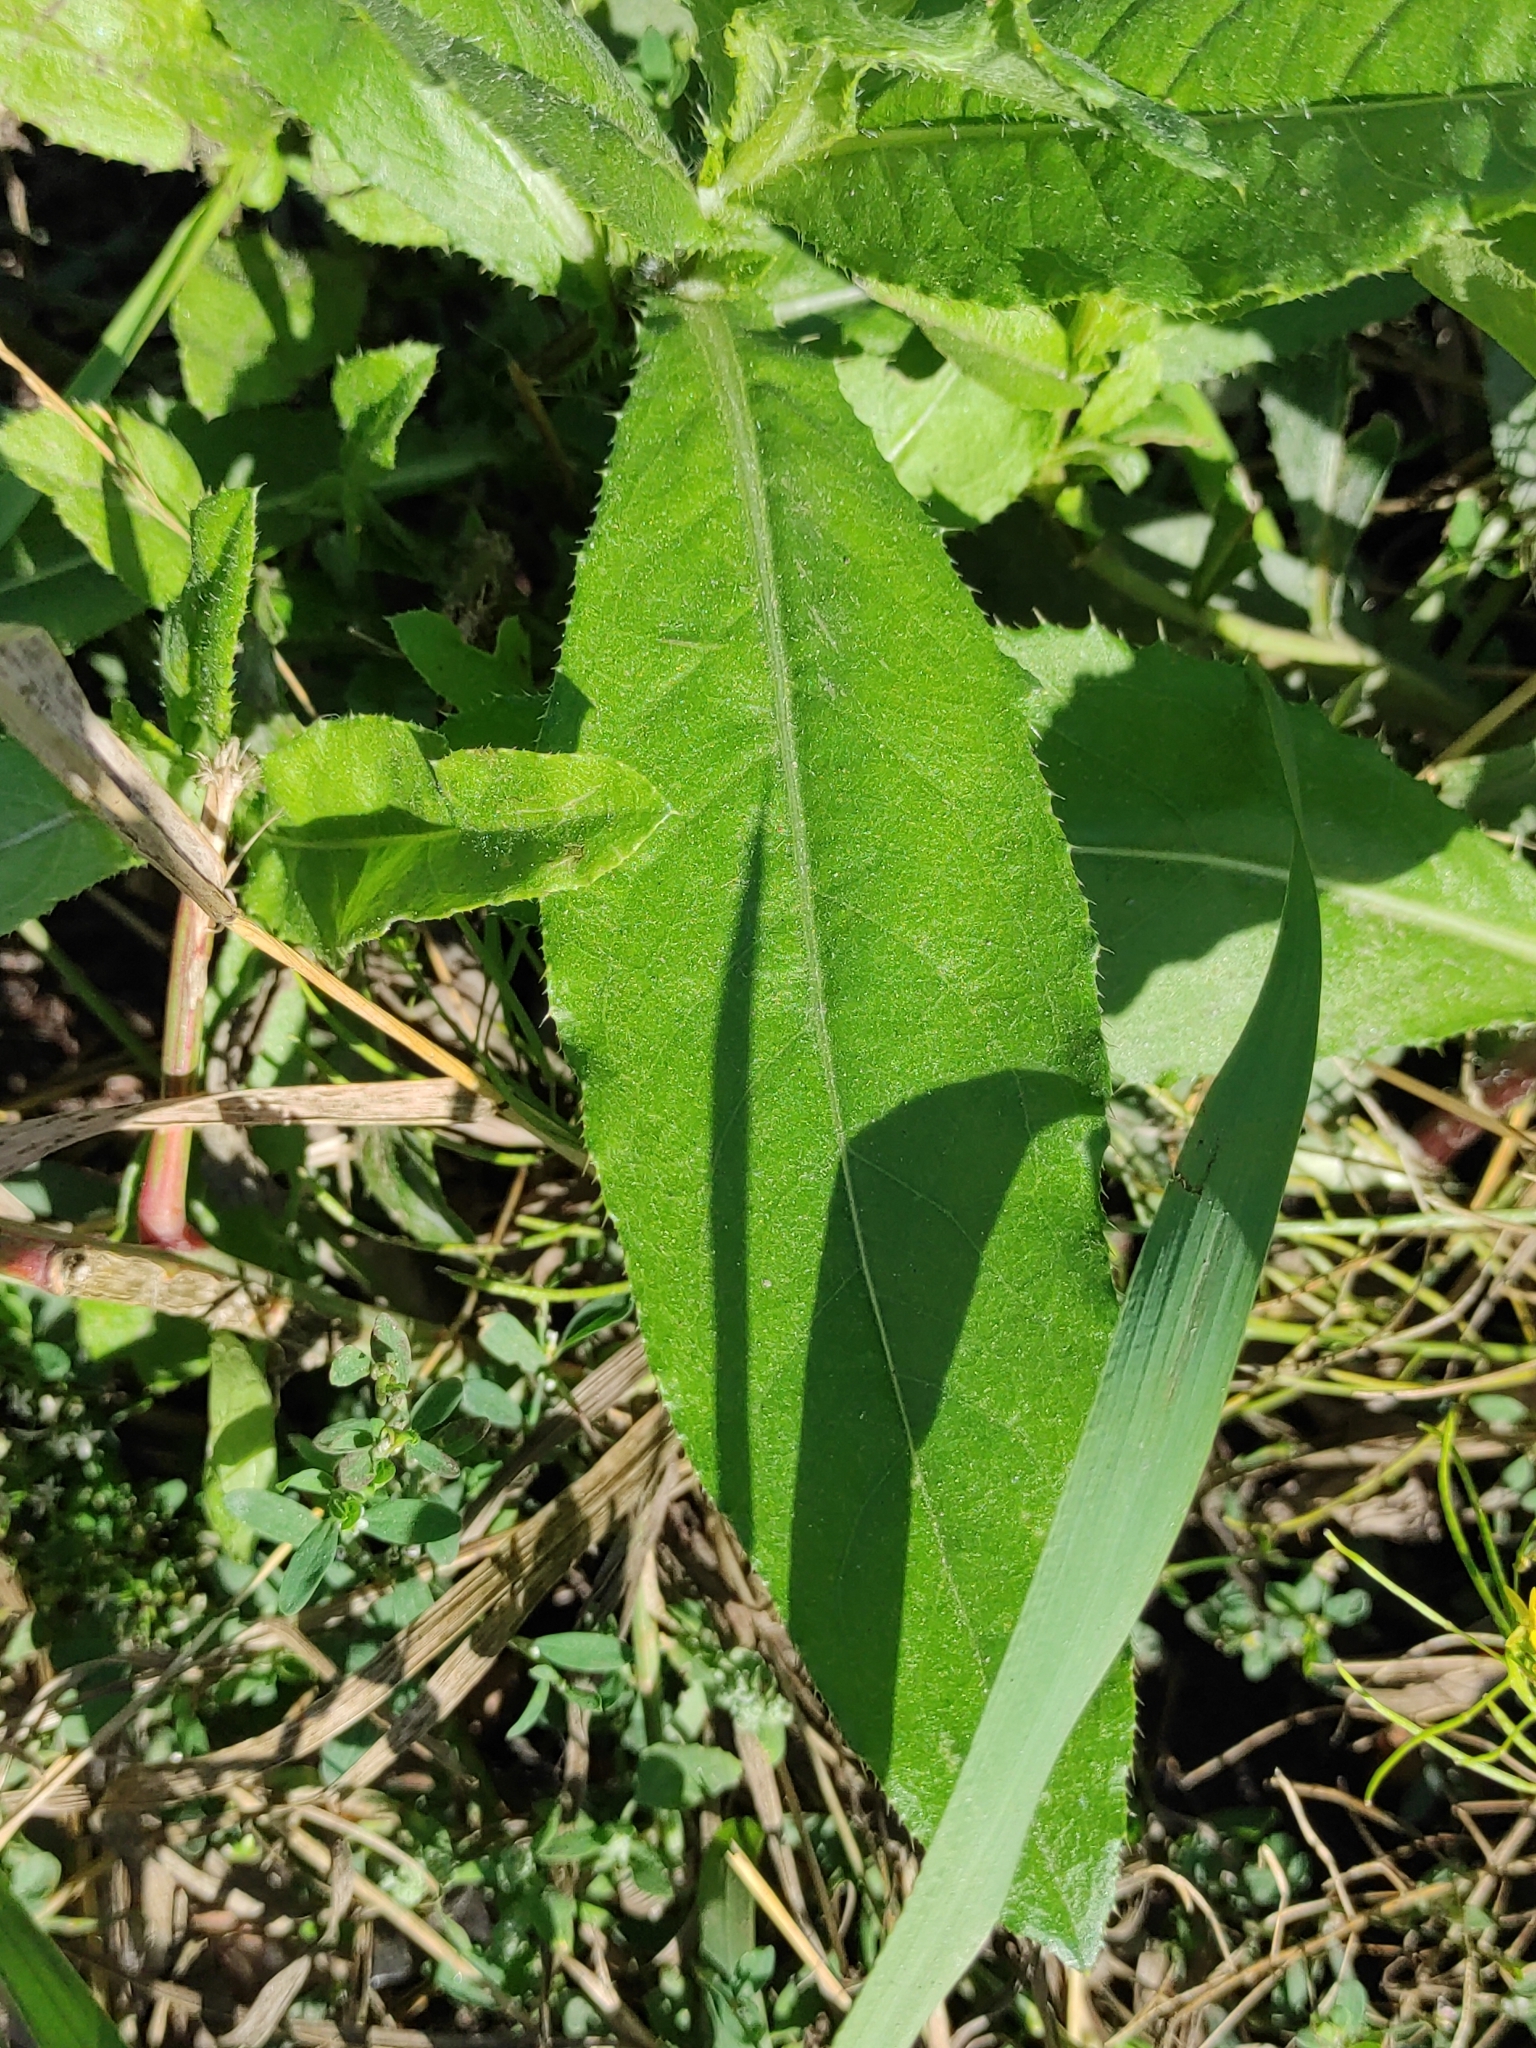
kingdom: Plantae
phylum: Tracheophyta
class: Magnoliopsida
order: Asterales
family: Asteraceae
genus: Cirsium
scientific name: Cirsium arvense
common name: Creeping thistle
